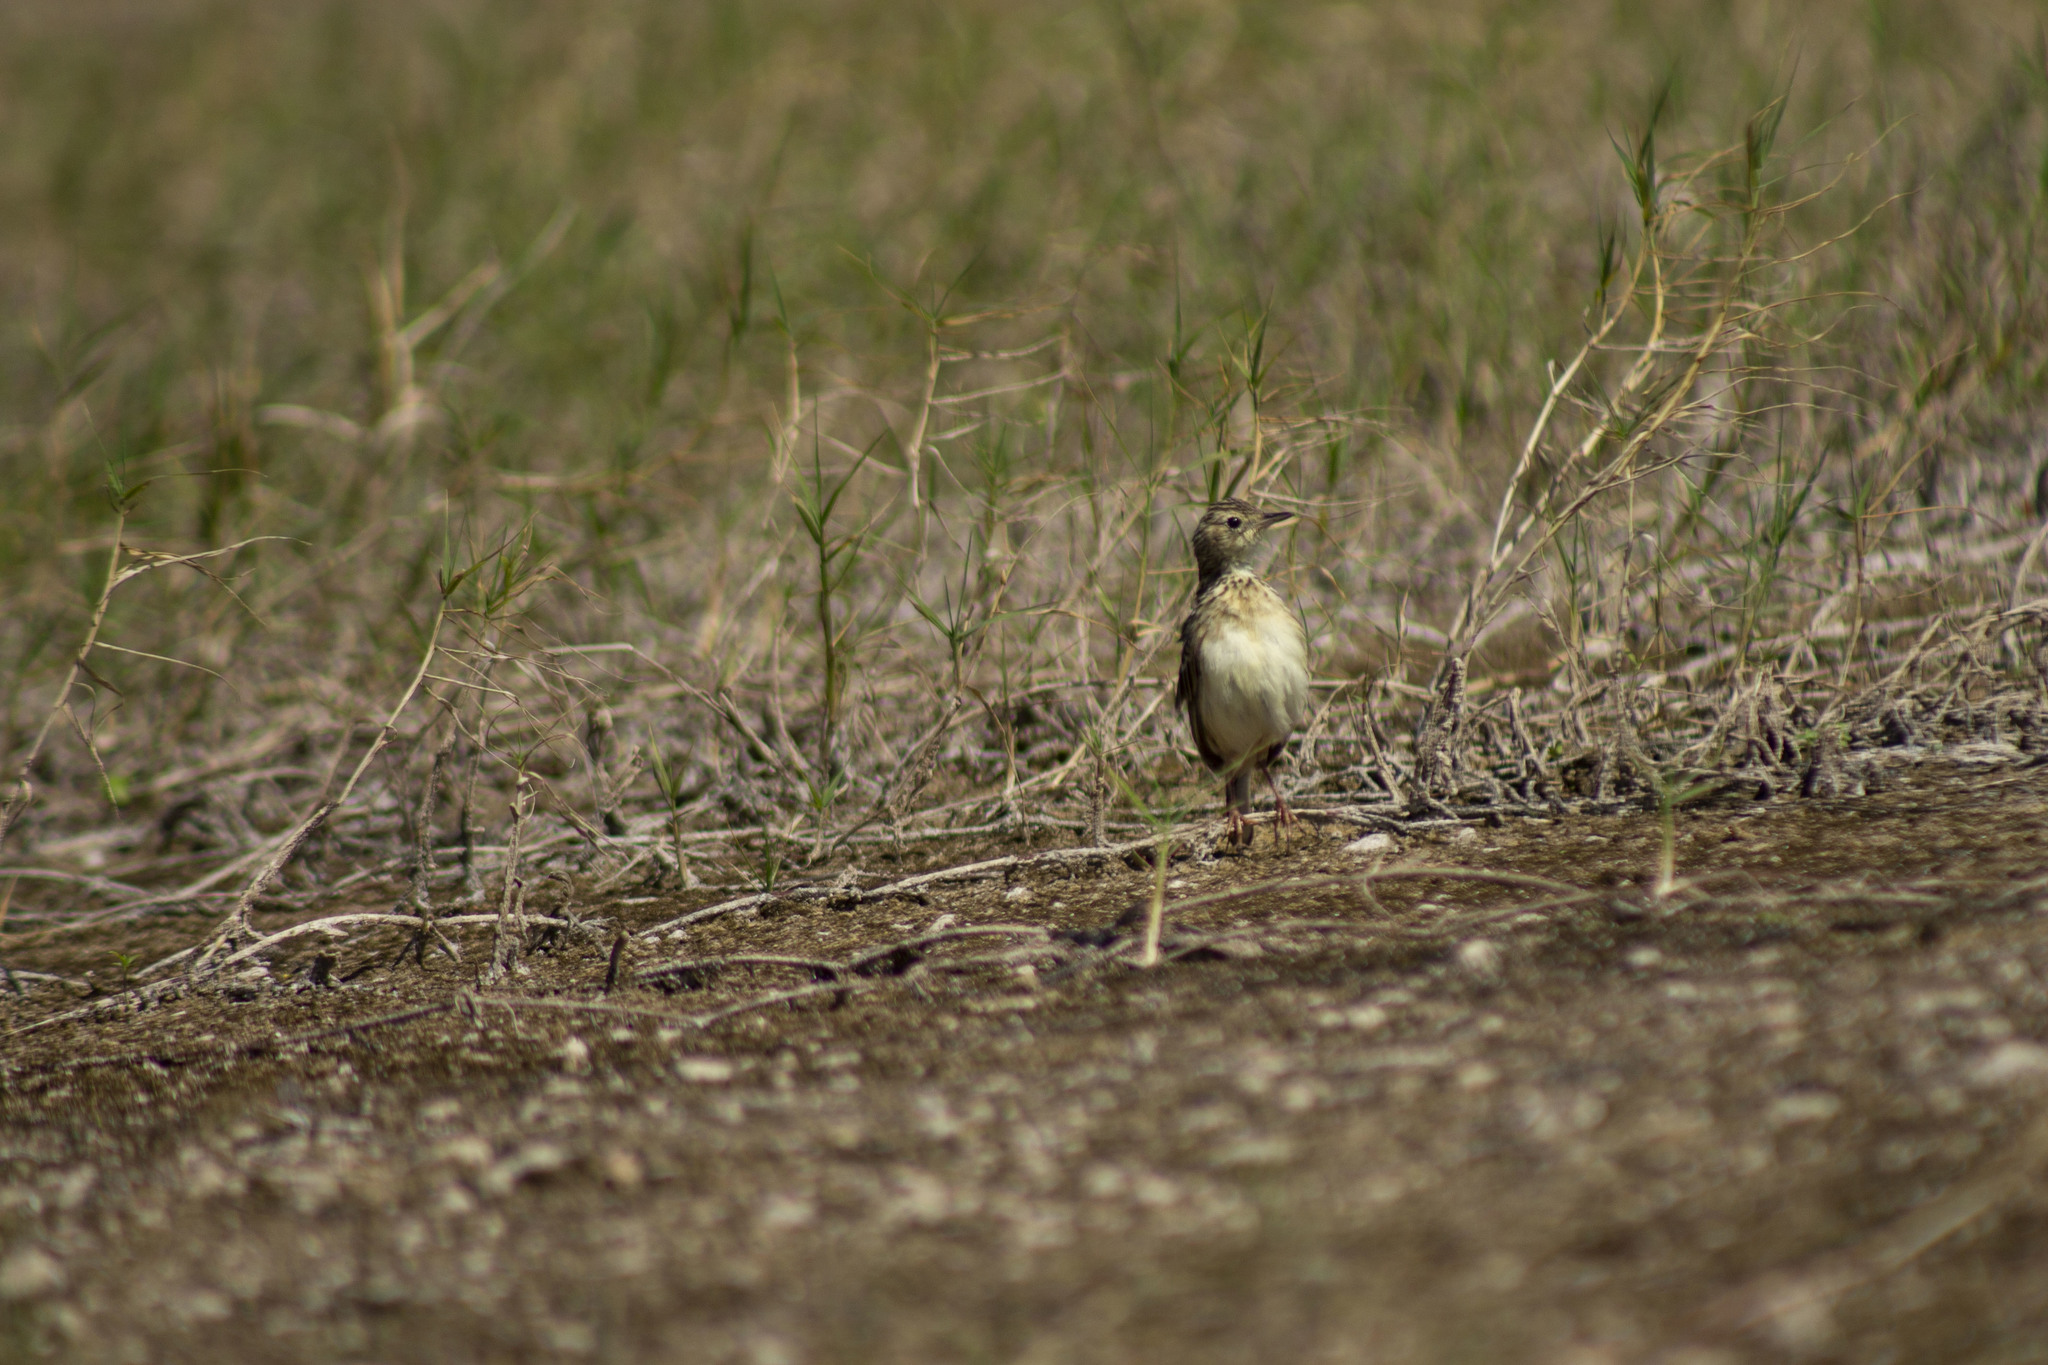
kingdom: Animalia
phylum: Chordata
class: Aves
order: Passeriformes
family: Motacillidae
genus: Anthus
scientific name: Anthus chii
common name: Yellowish pipit
